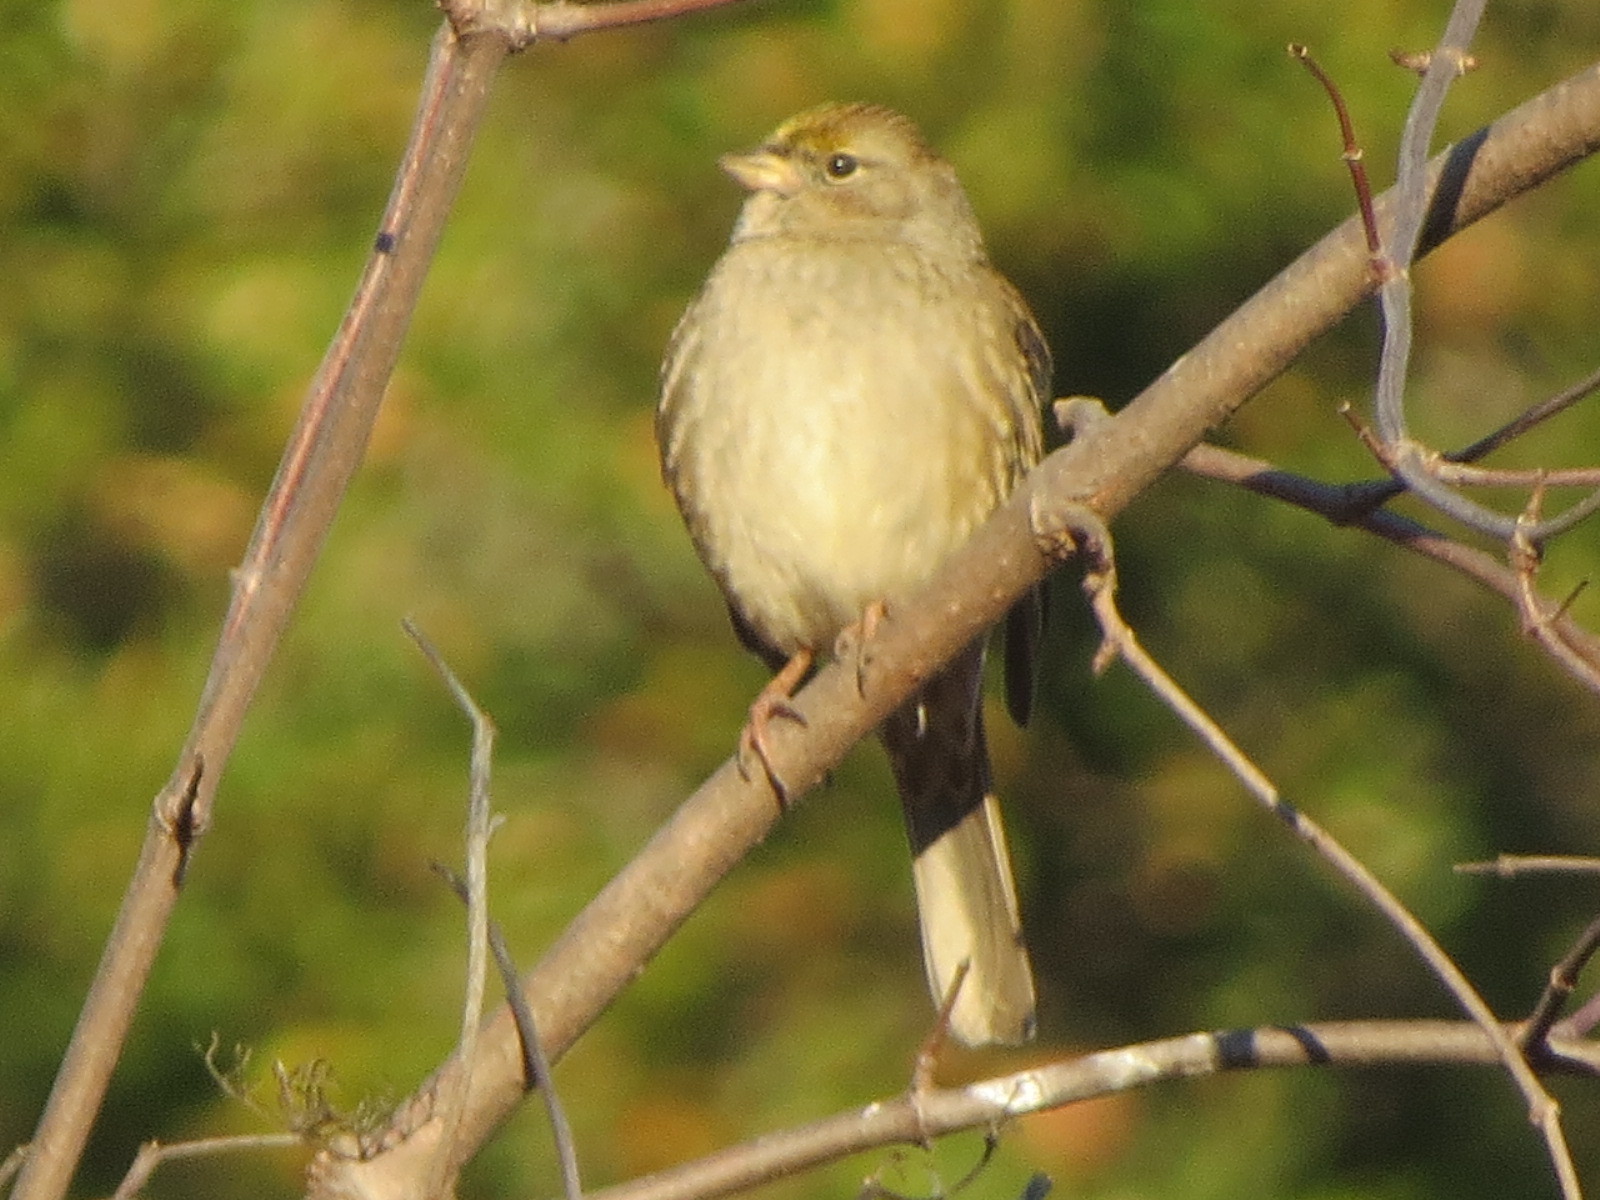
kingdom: Animalia
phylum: Chordata
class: Aves
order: Passeriformes
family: Passerellidae
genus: Zonotrichia
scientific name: Zonotrichia atricapilla
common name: Golden-crowned sparrow
